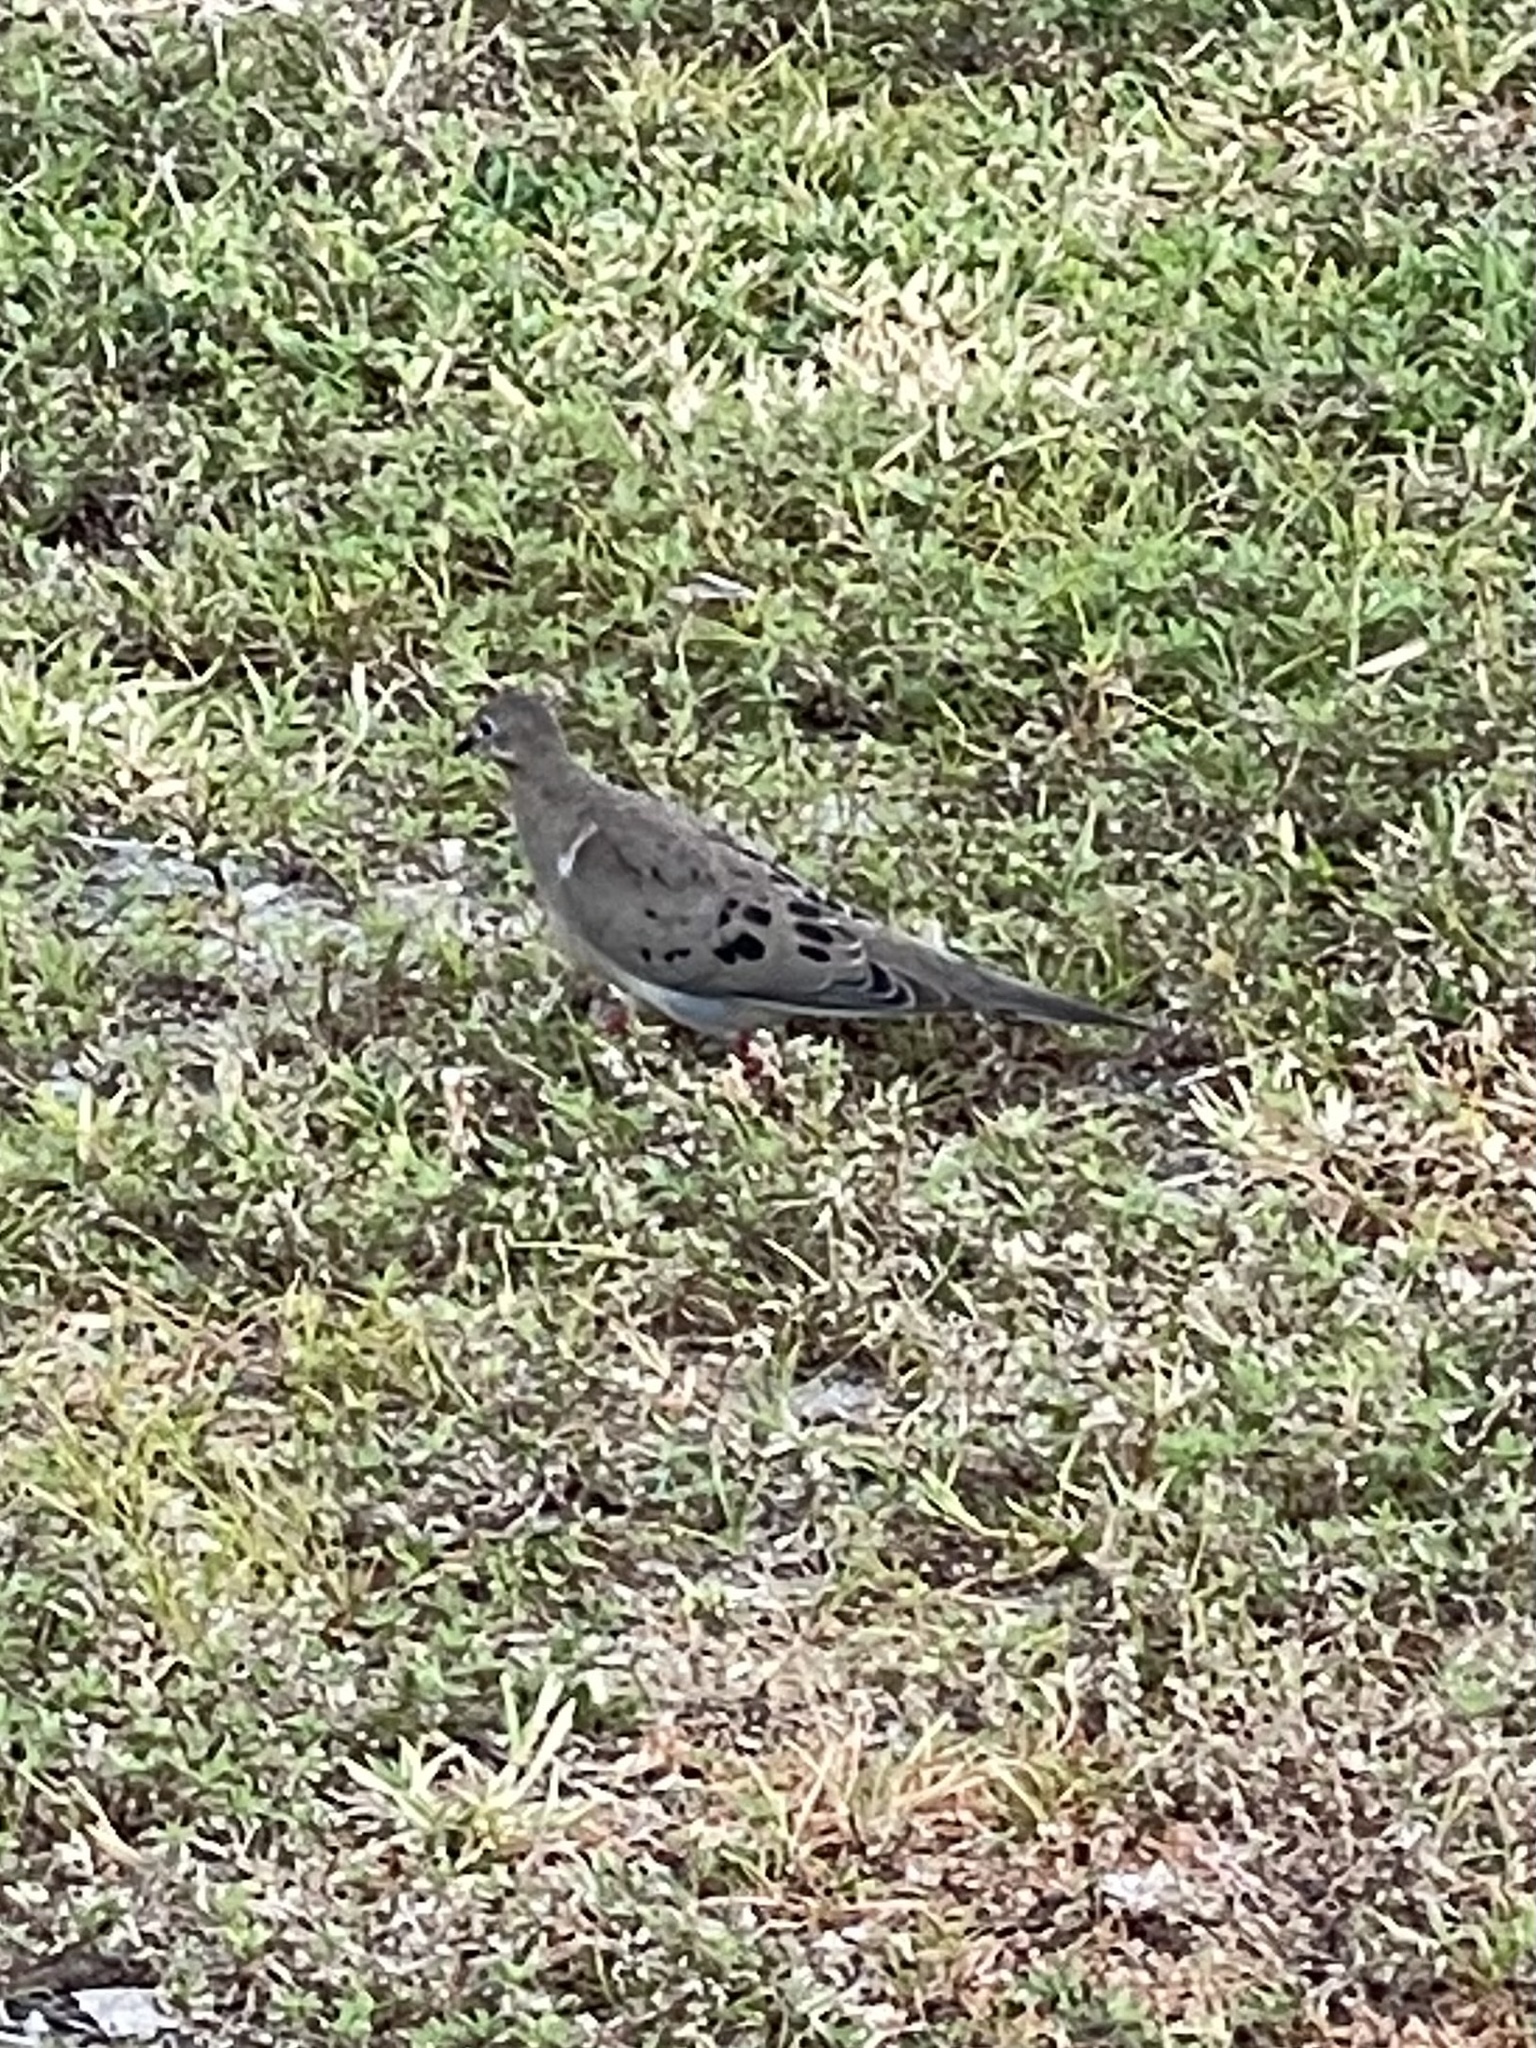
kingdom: Animalia
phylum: Chordata
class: Aves
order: Columbiformes
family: Columbidae
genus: Zenaida
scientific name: Zenaida macroura
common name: Mourning dove
